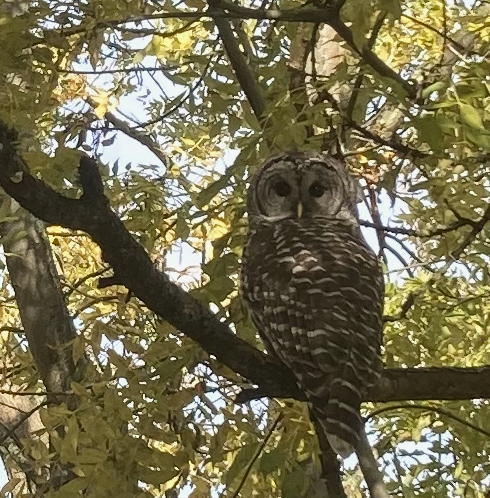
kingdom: Animalia
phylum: Chordata
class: Aves
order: Strigiformes
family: Strigidae
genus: Strix
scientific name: Strix varia
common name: Barred owl
